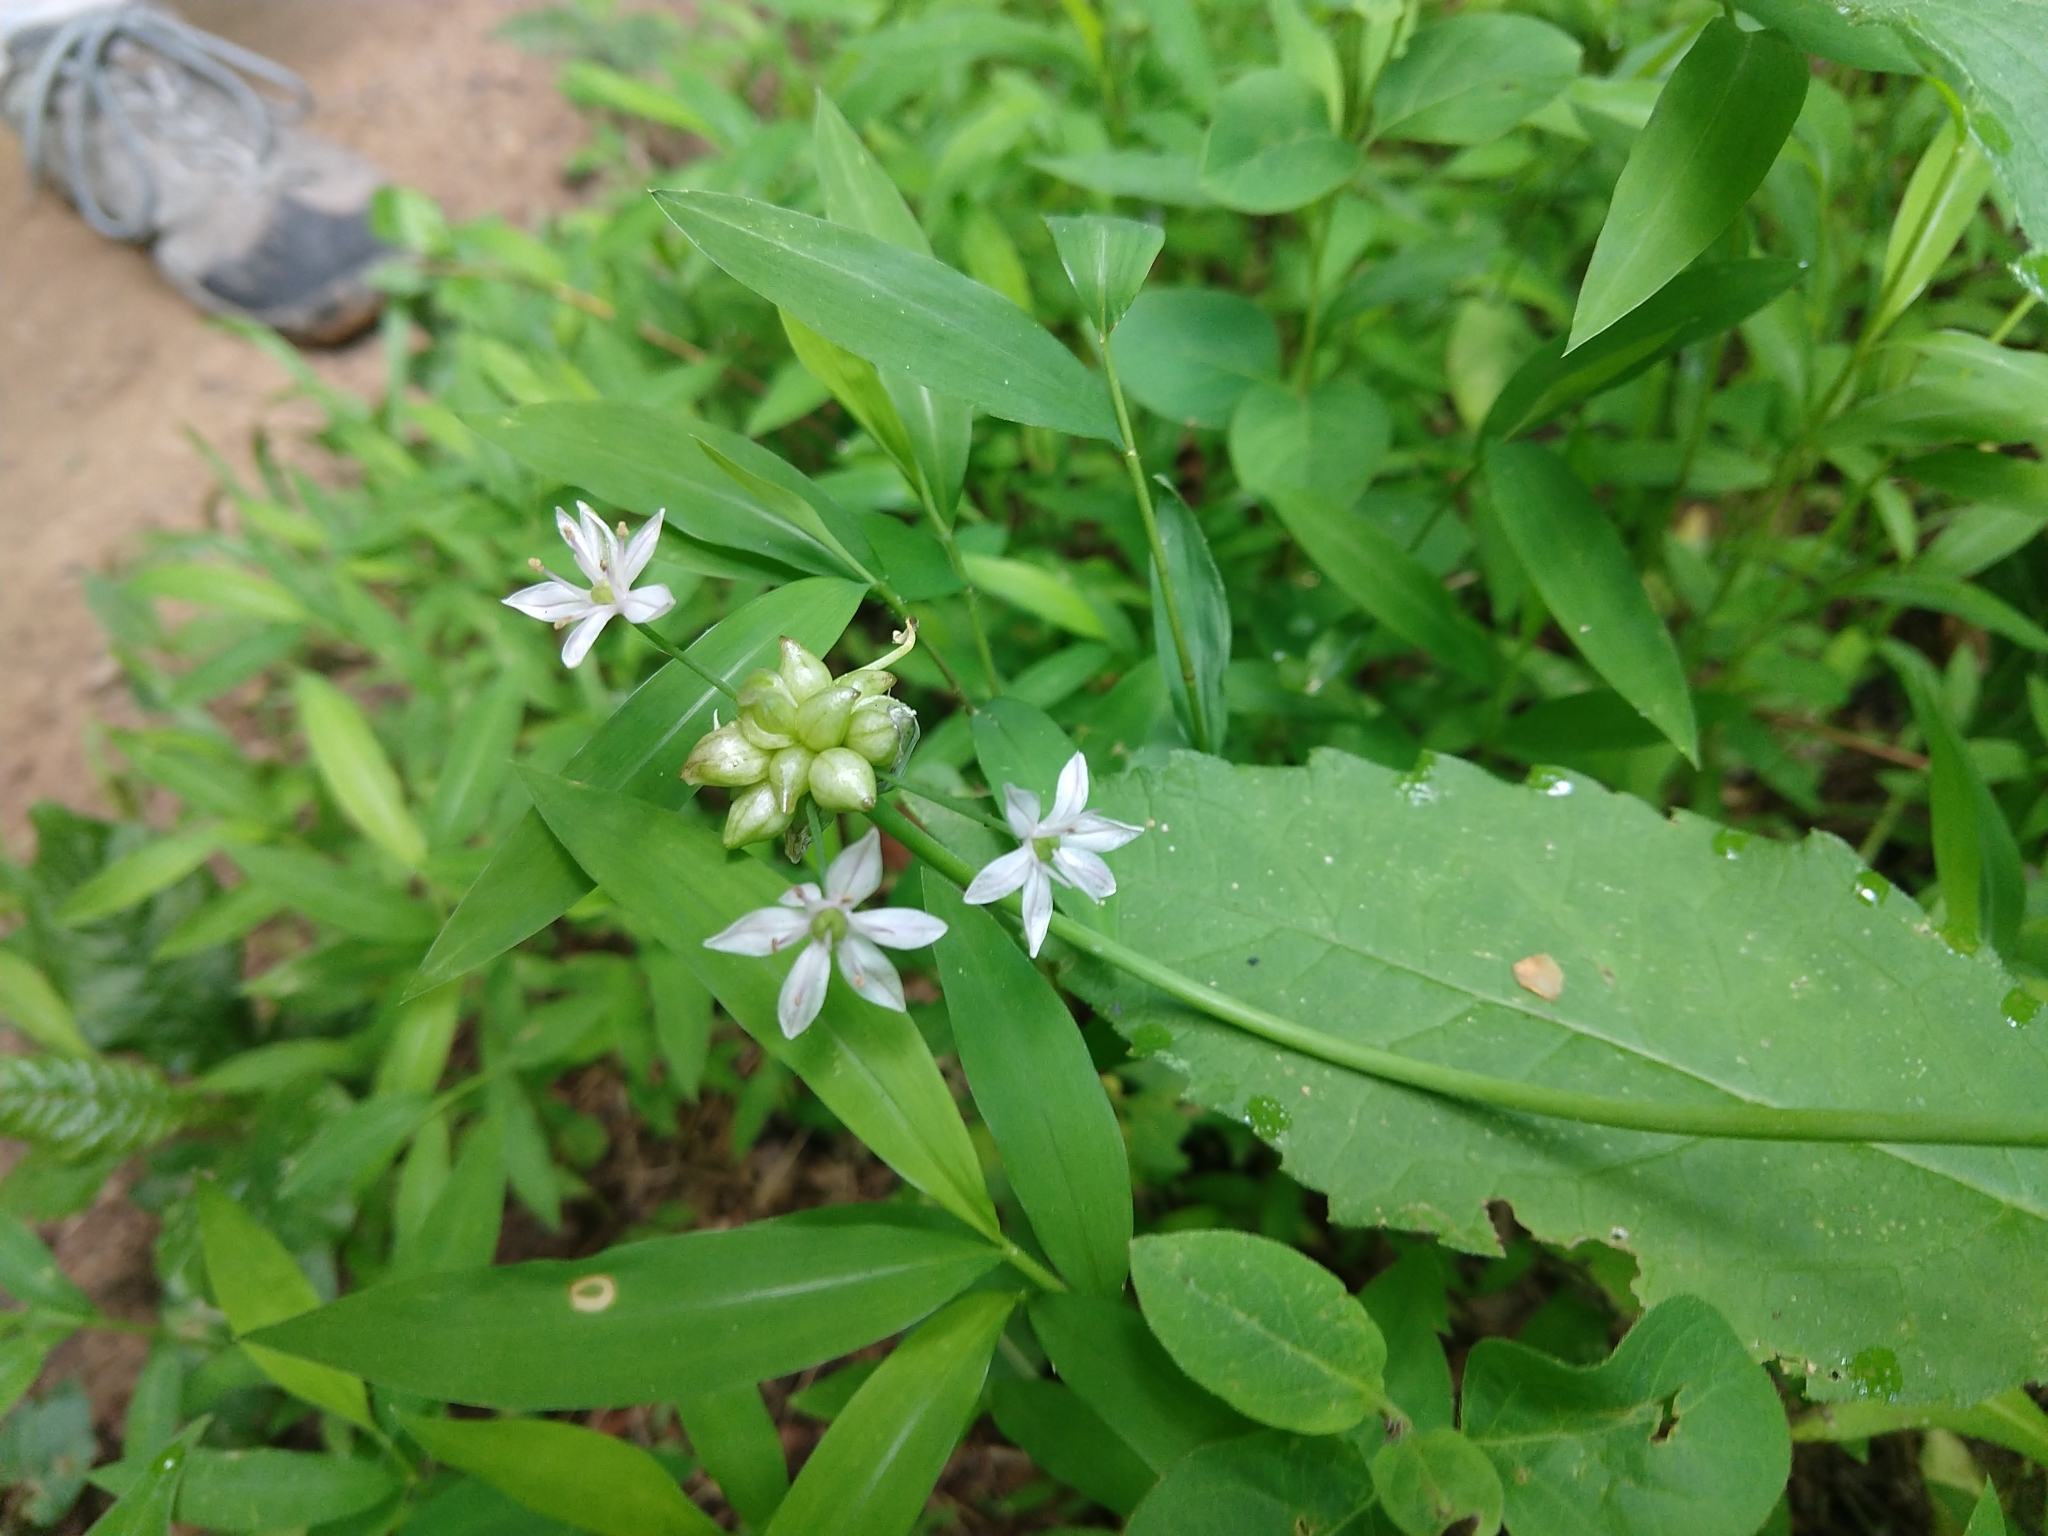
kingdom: Plantae
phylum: Tracheophyta
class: Liliopsida
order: Asparagales
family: Amaryllidaceae
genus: Allium
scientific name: Allium canadense
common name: Meadow garlic
